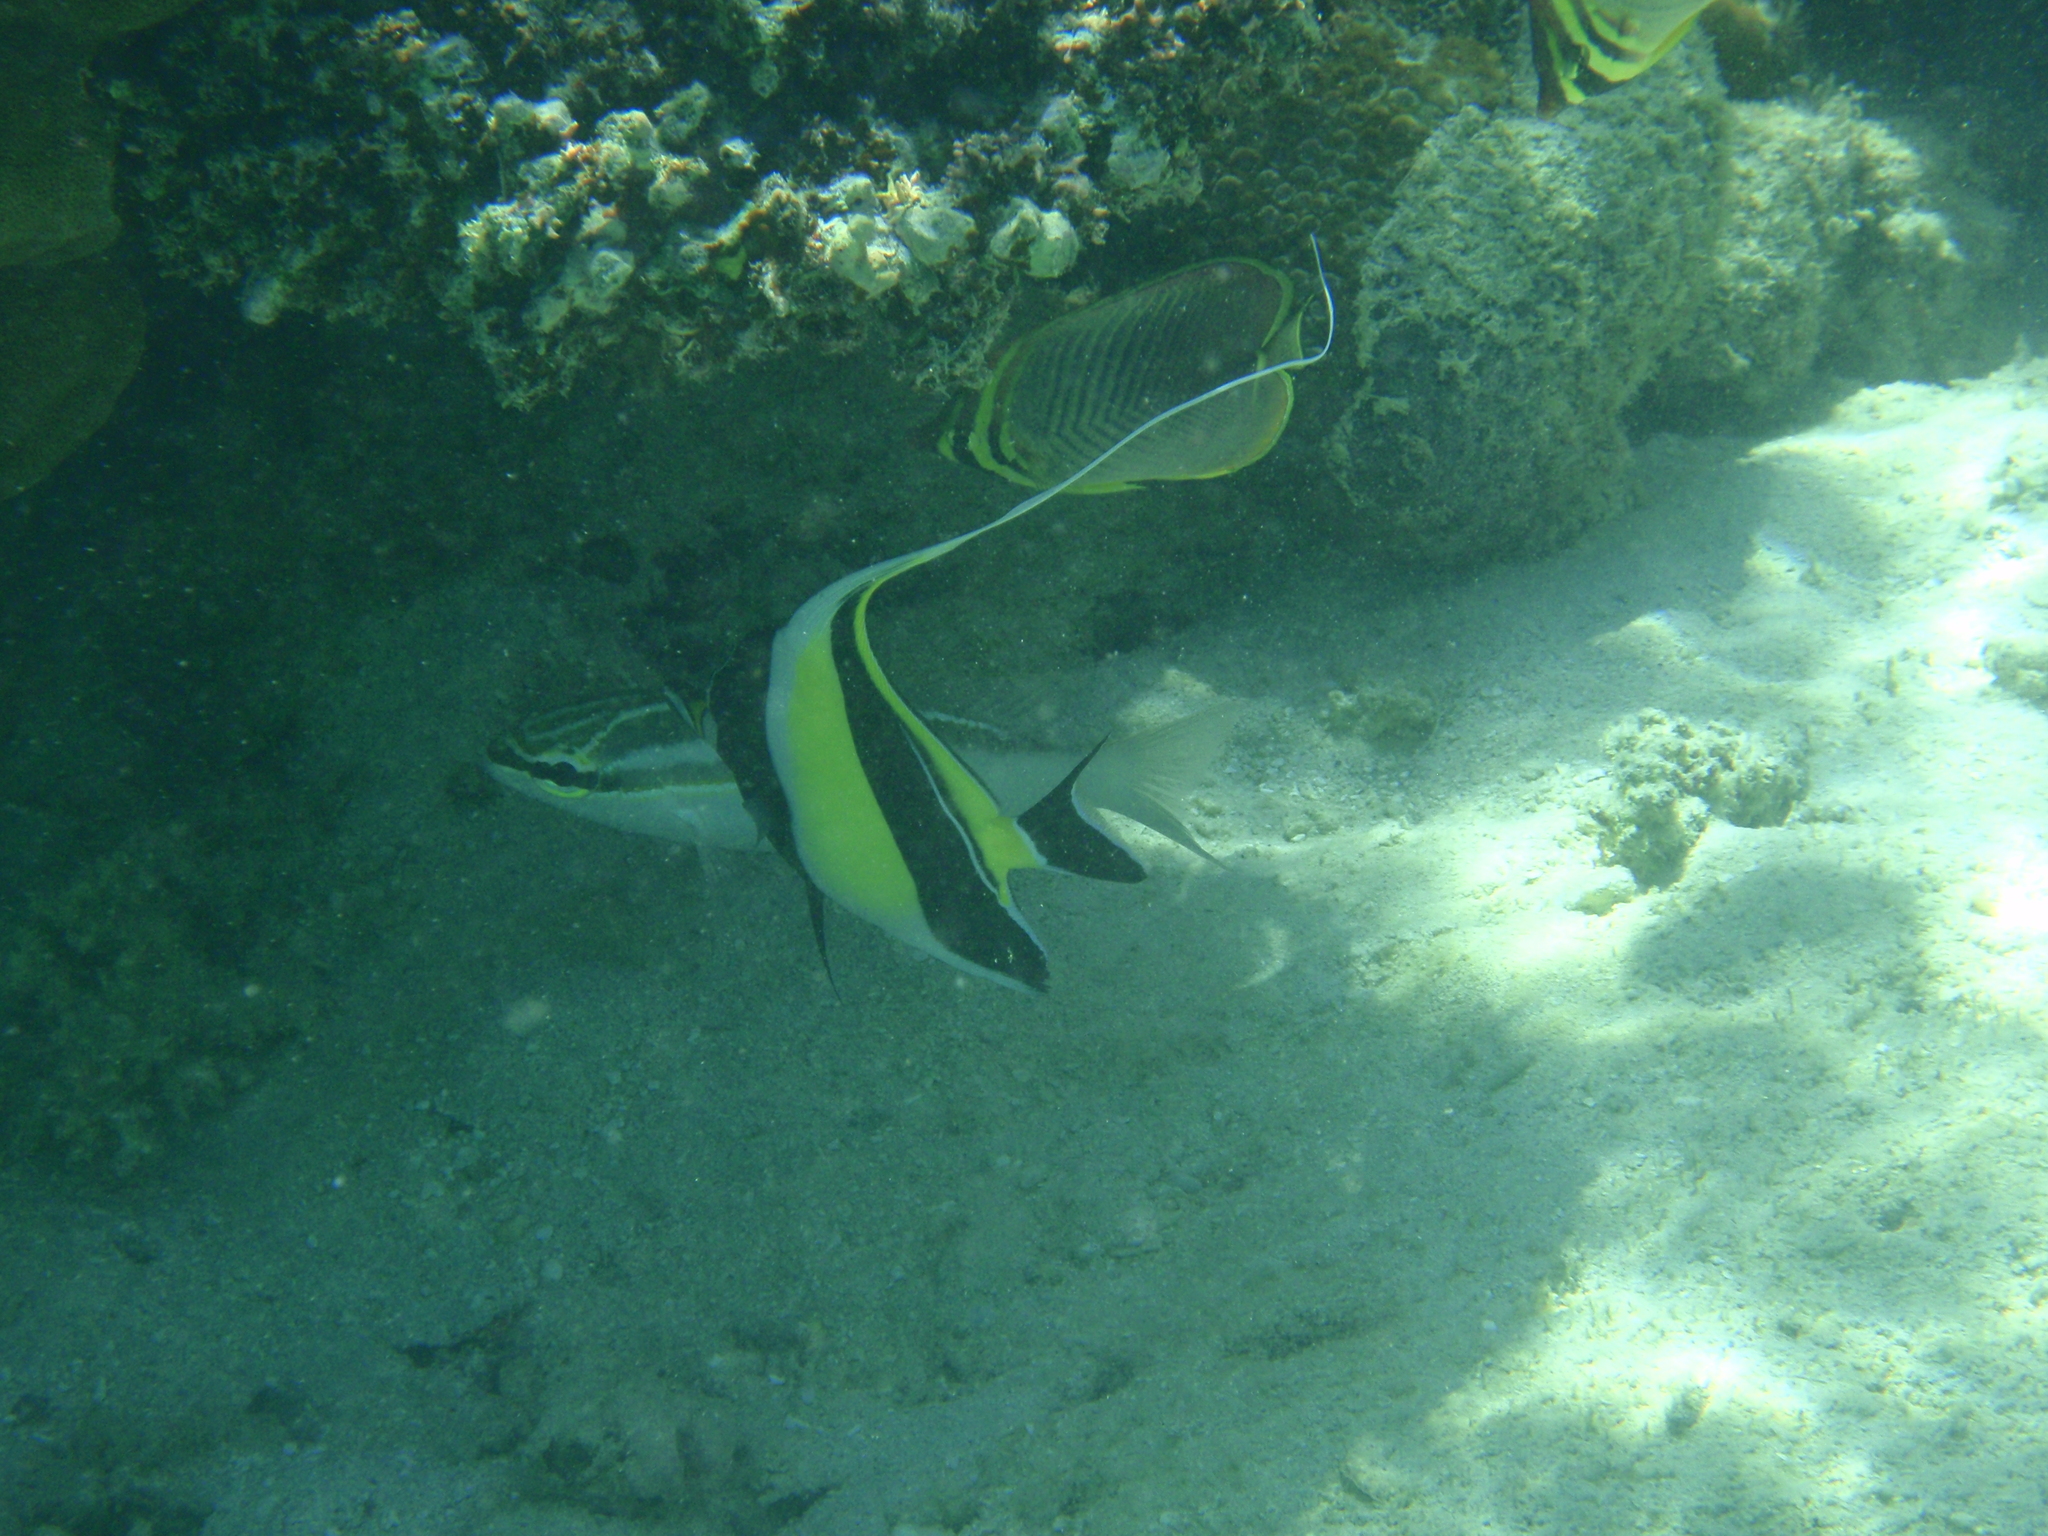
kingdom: Animalia
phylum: Chordata
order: Perciformes
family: Zanclidae
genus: Zanclus
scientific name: Zanclus cornutus
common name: Moorish idol
